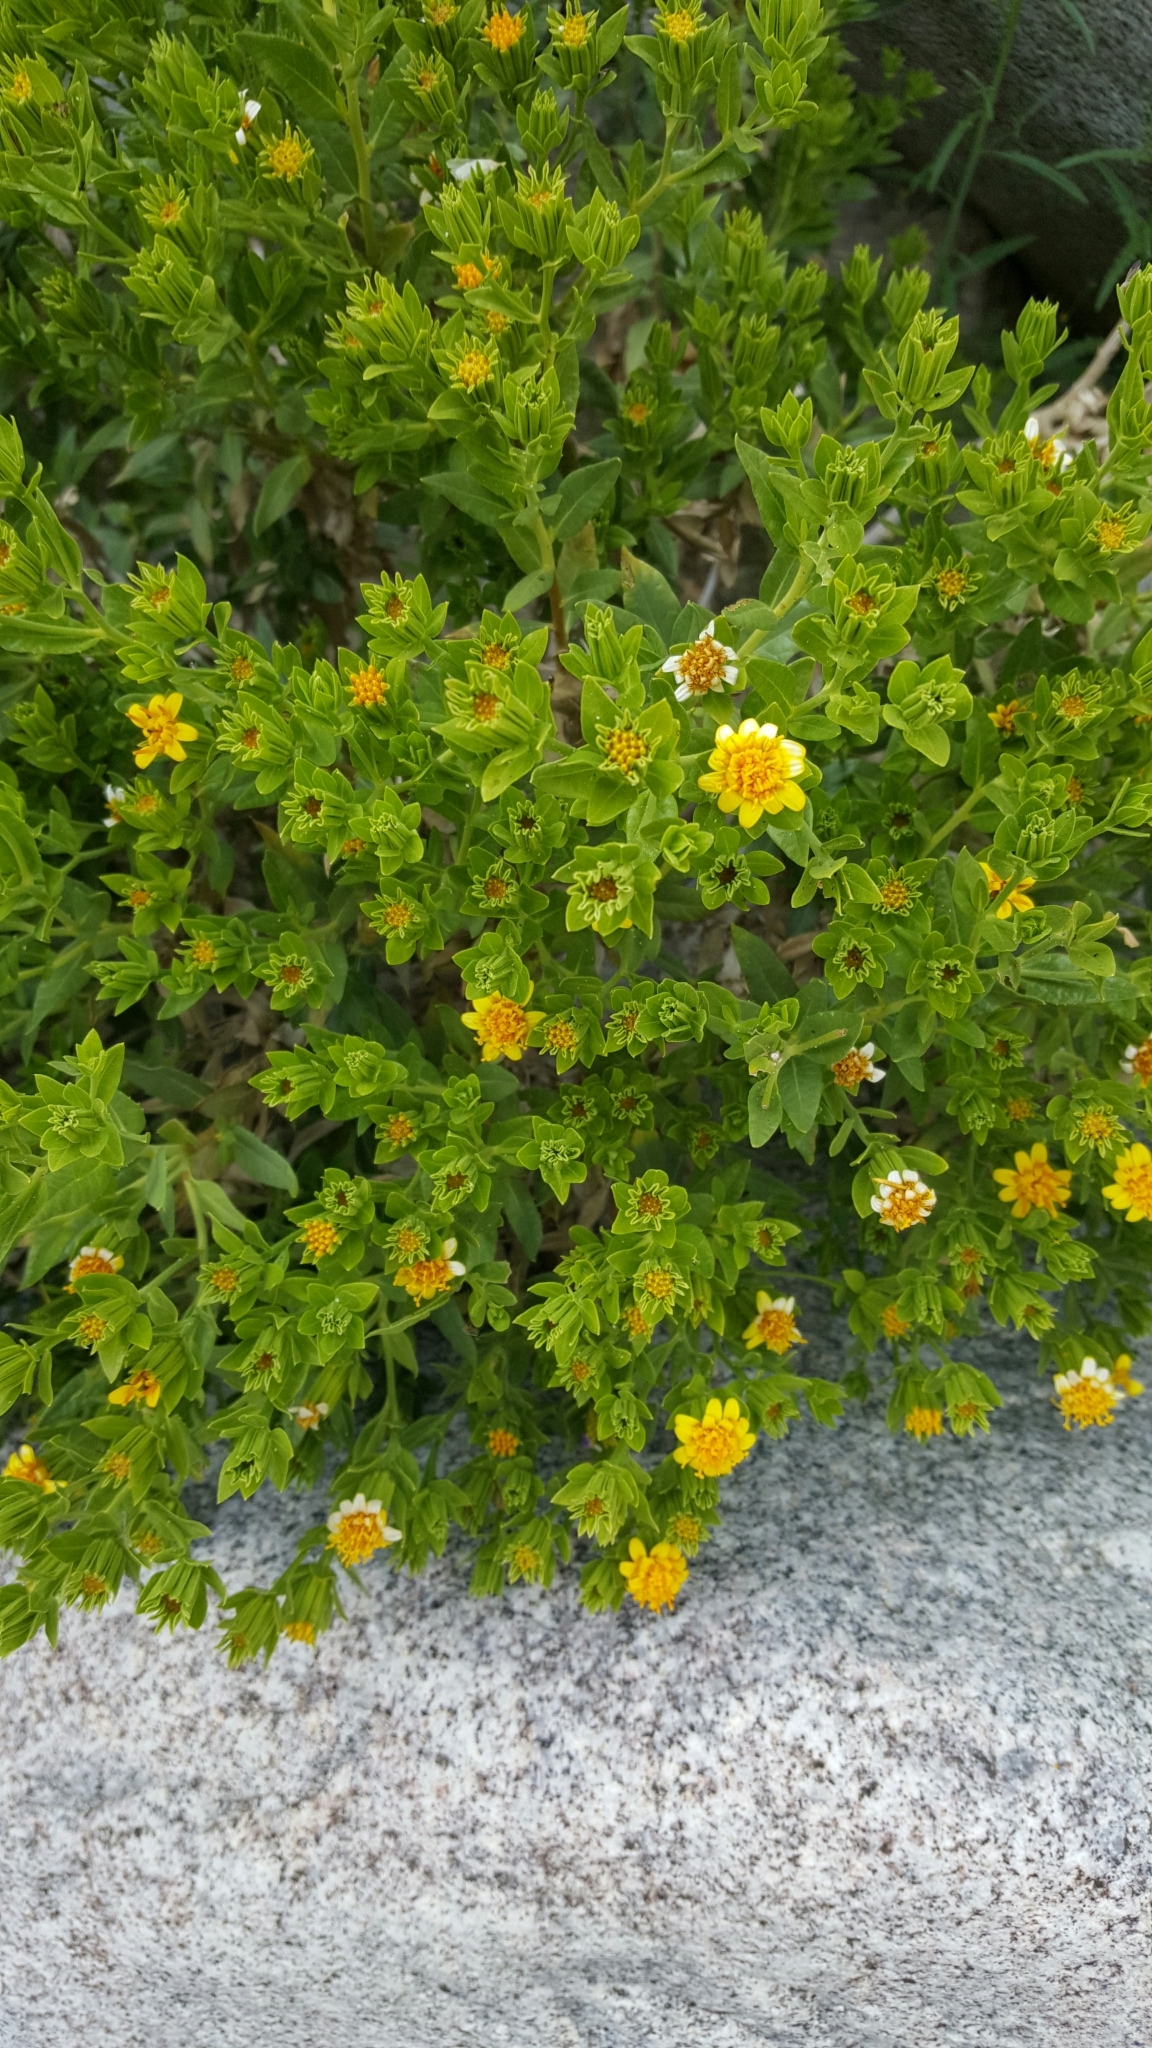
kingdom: Plantae
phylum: Tracheophyta
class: Magnoliopsida
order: Asterales
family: Asteraceae
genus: Trixis
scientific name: Trixis californica
